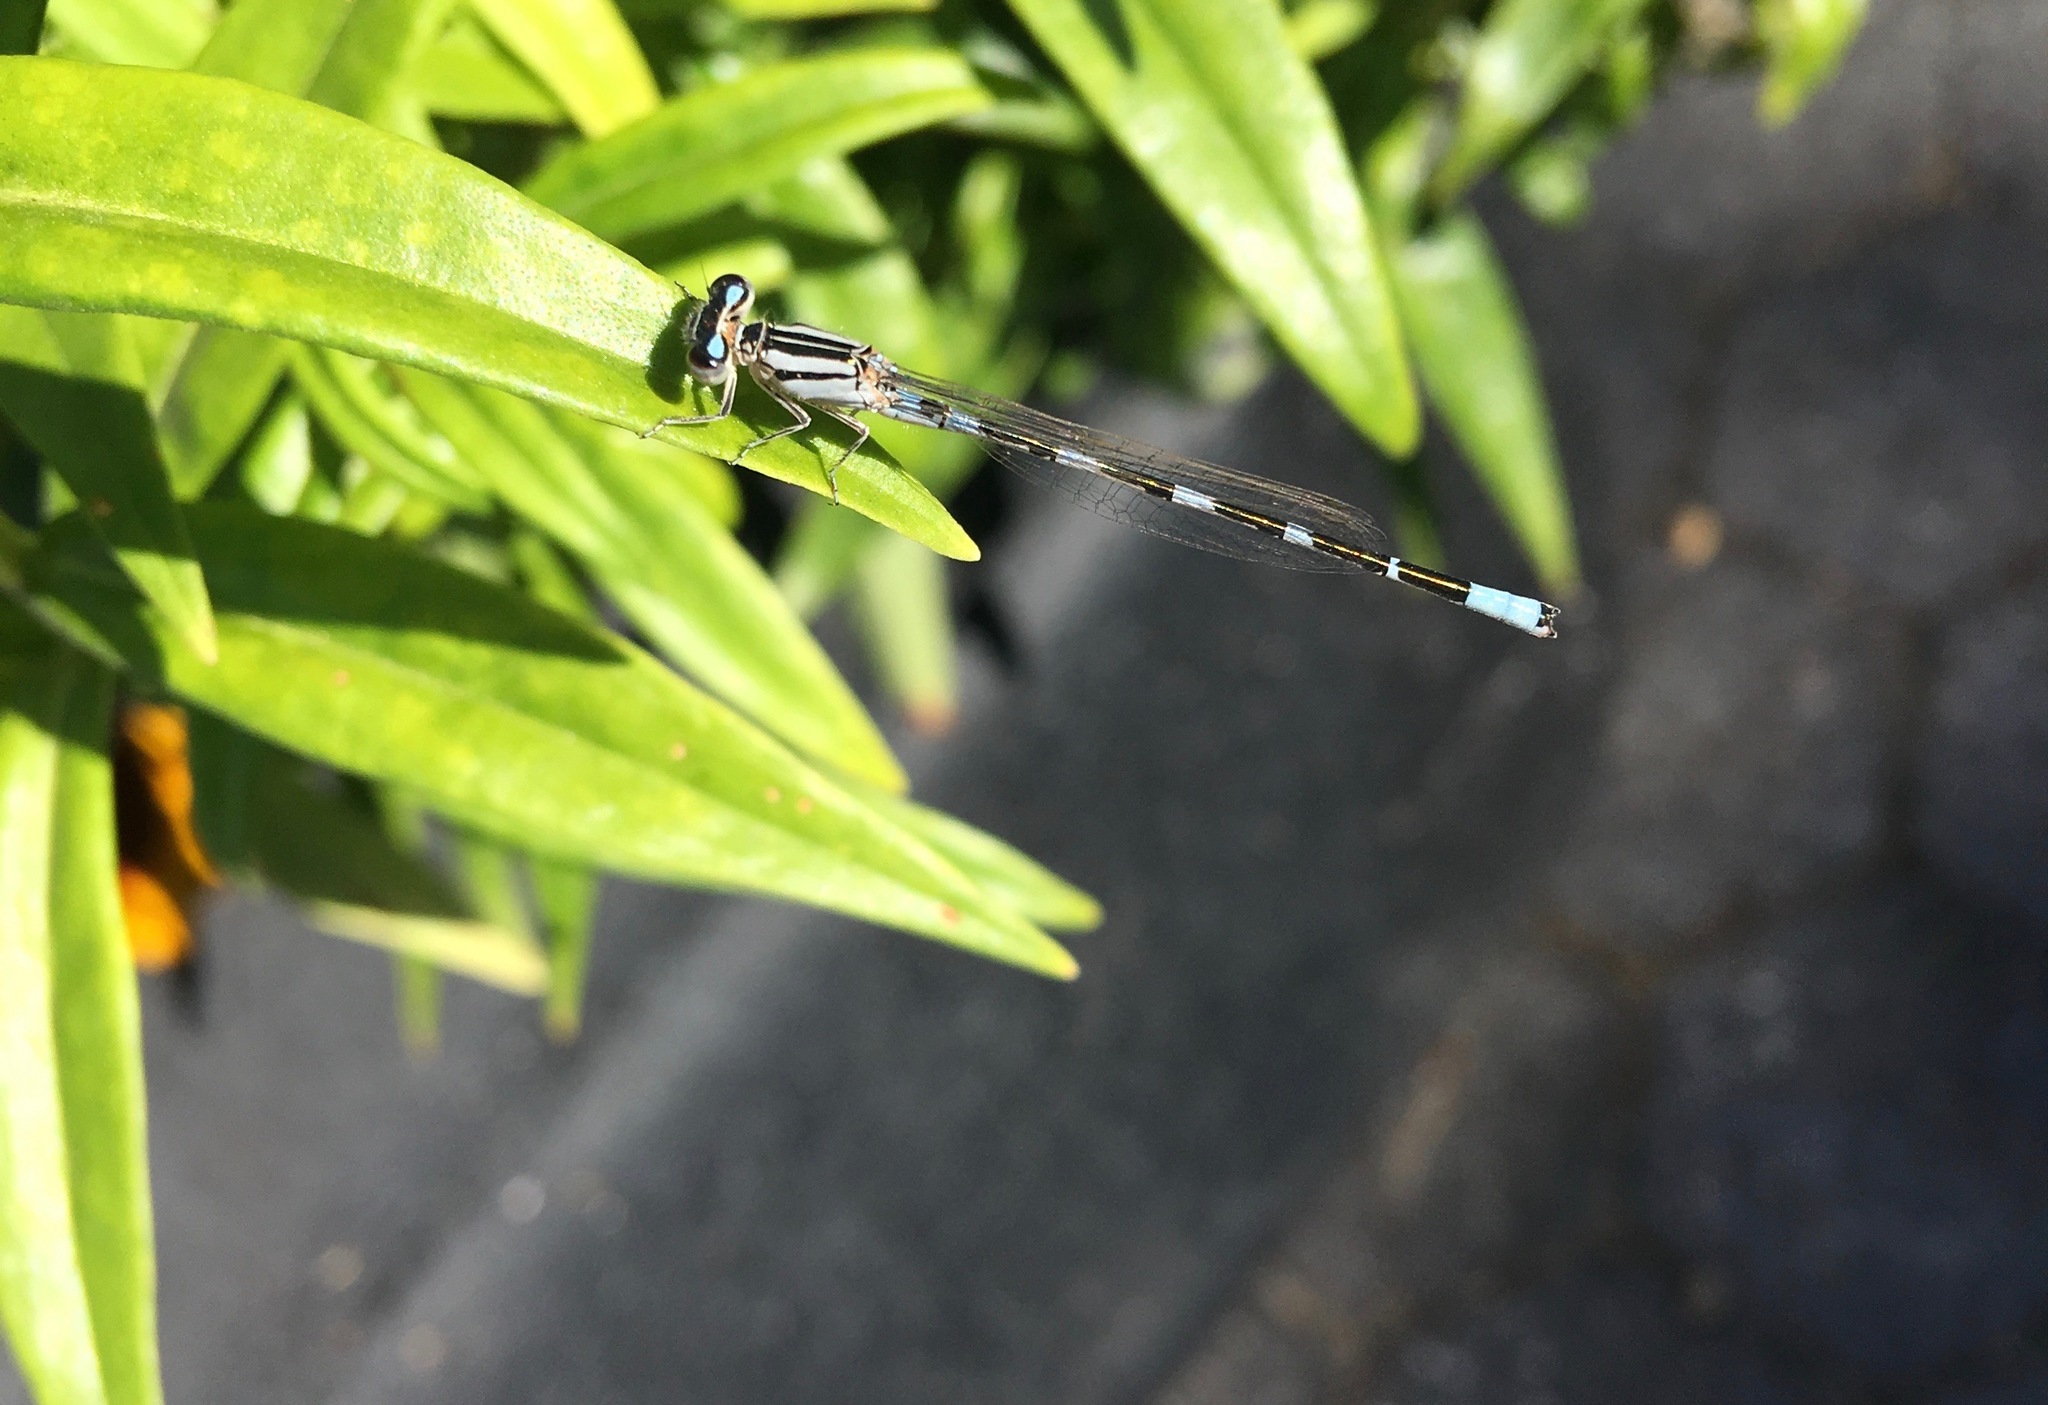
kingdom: Animalia
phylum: Arthropoda
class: Insecta
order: Odonata
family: Coenagrionidae
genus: Enallagma
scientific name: Enallagma carunculatum
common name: Tule bluet
